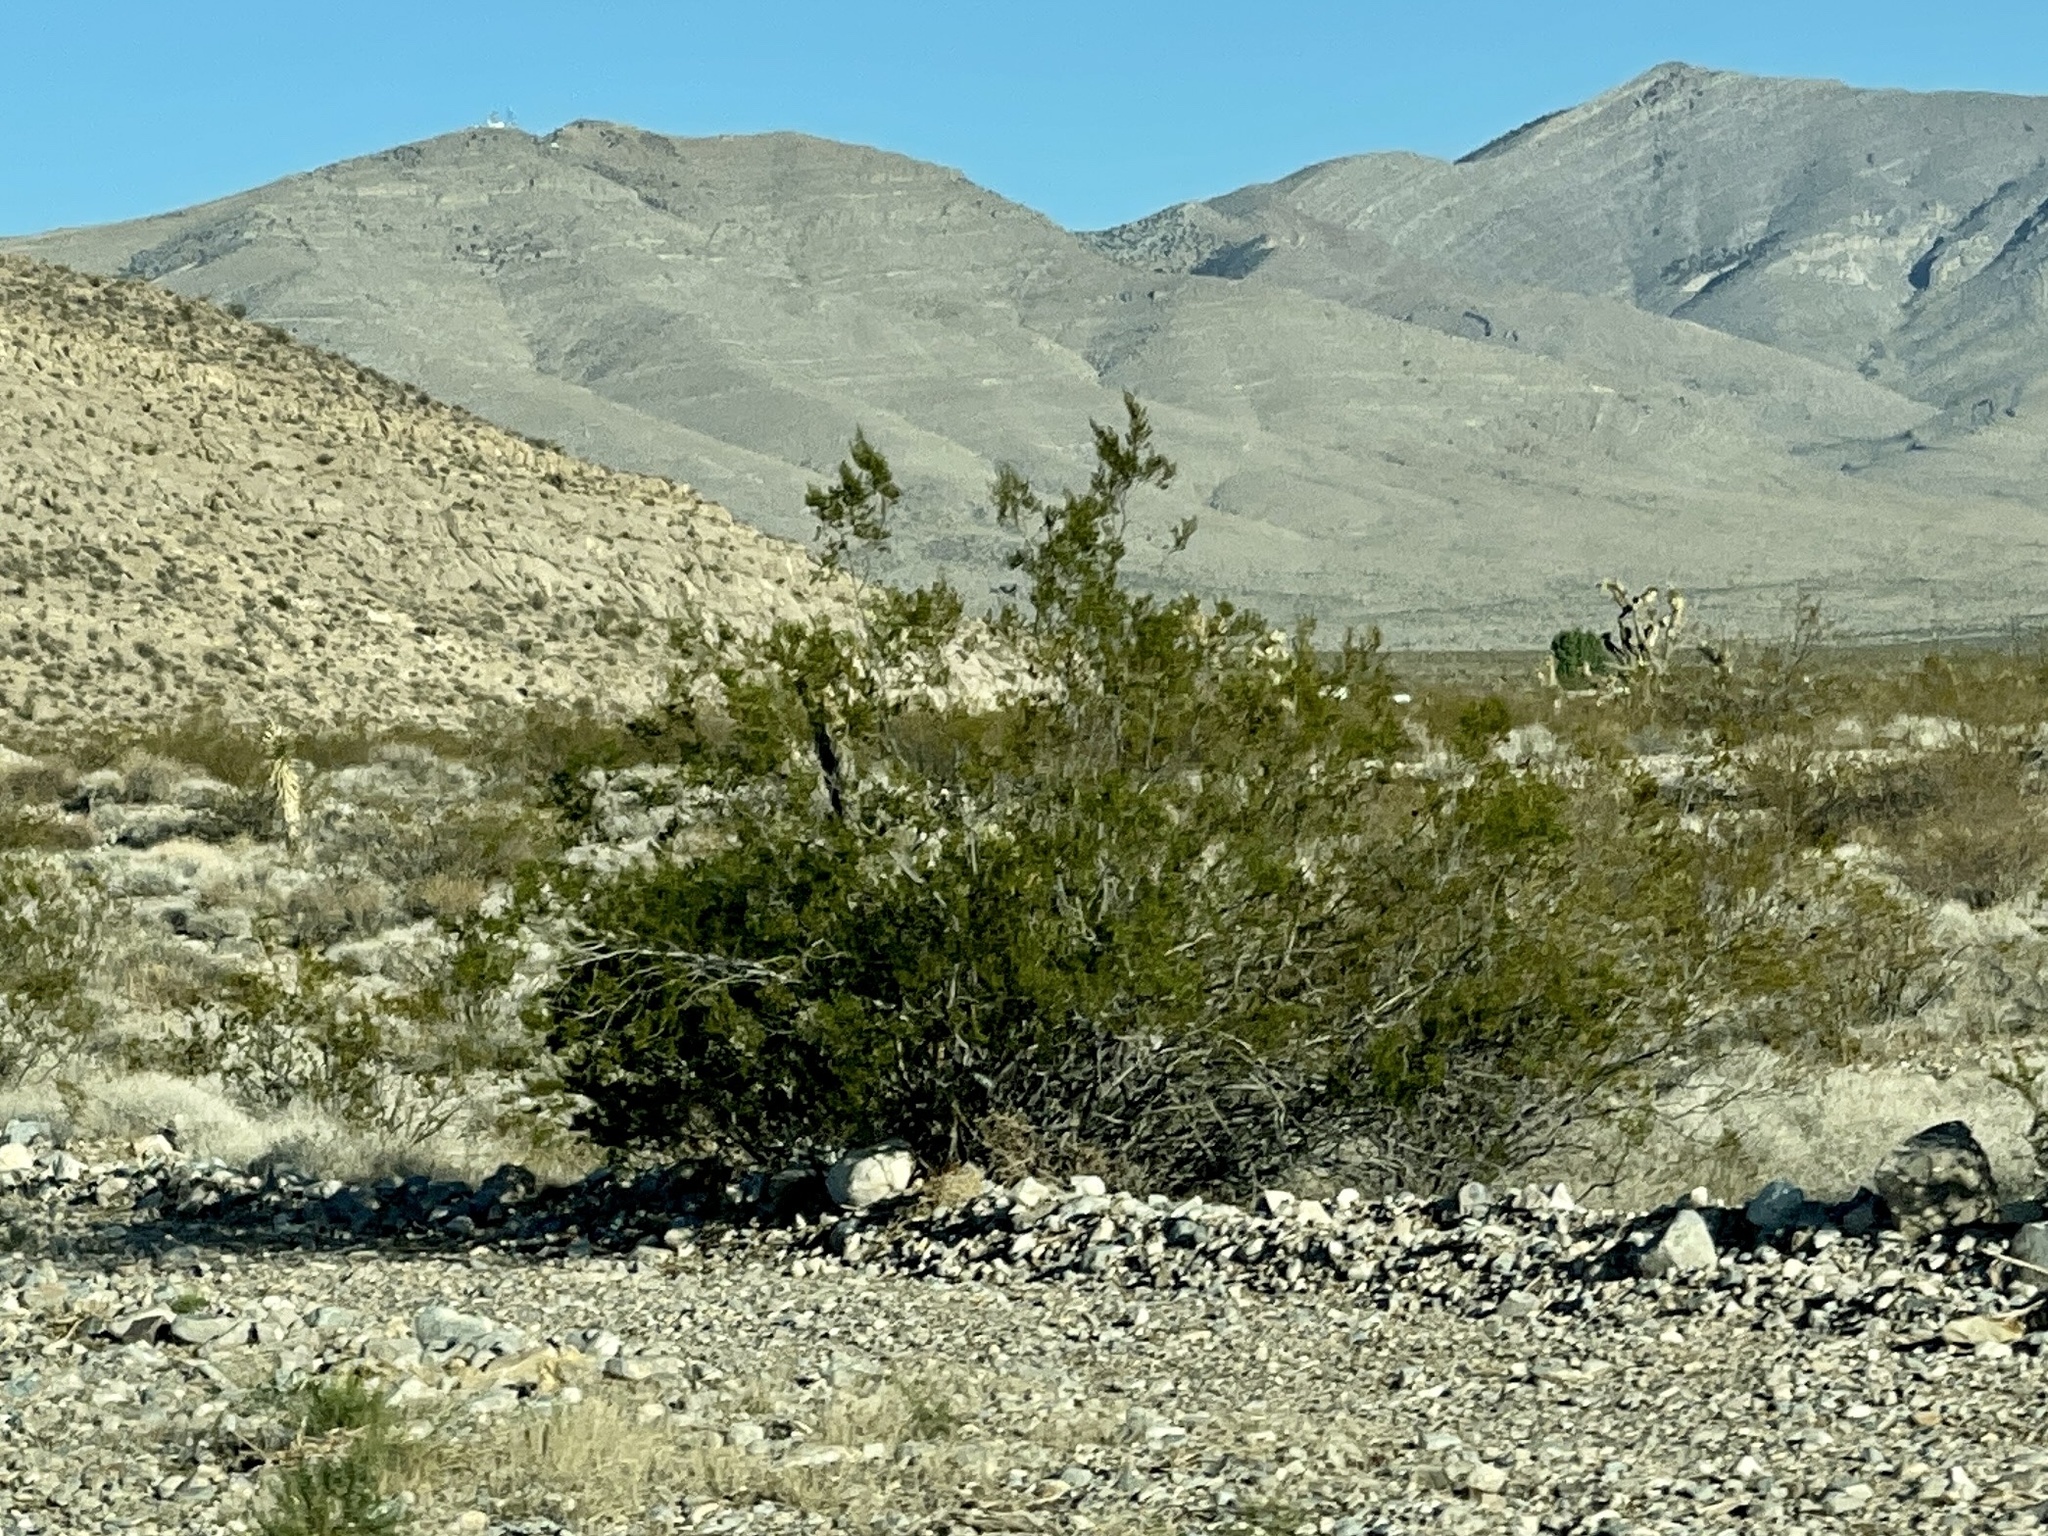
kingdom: Plantae
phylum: Tracheophyta
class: Magnoliopsida
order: Zygophyllales
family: Zygophyllaceae
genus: Larrea
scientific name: Larrea tridentata
